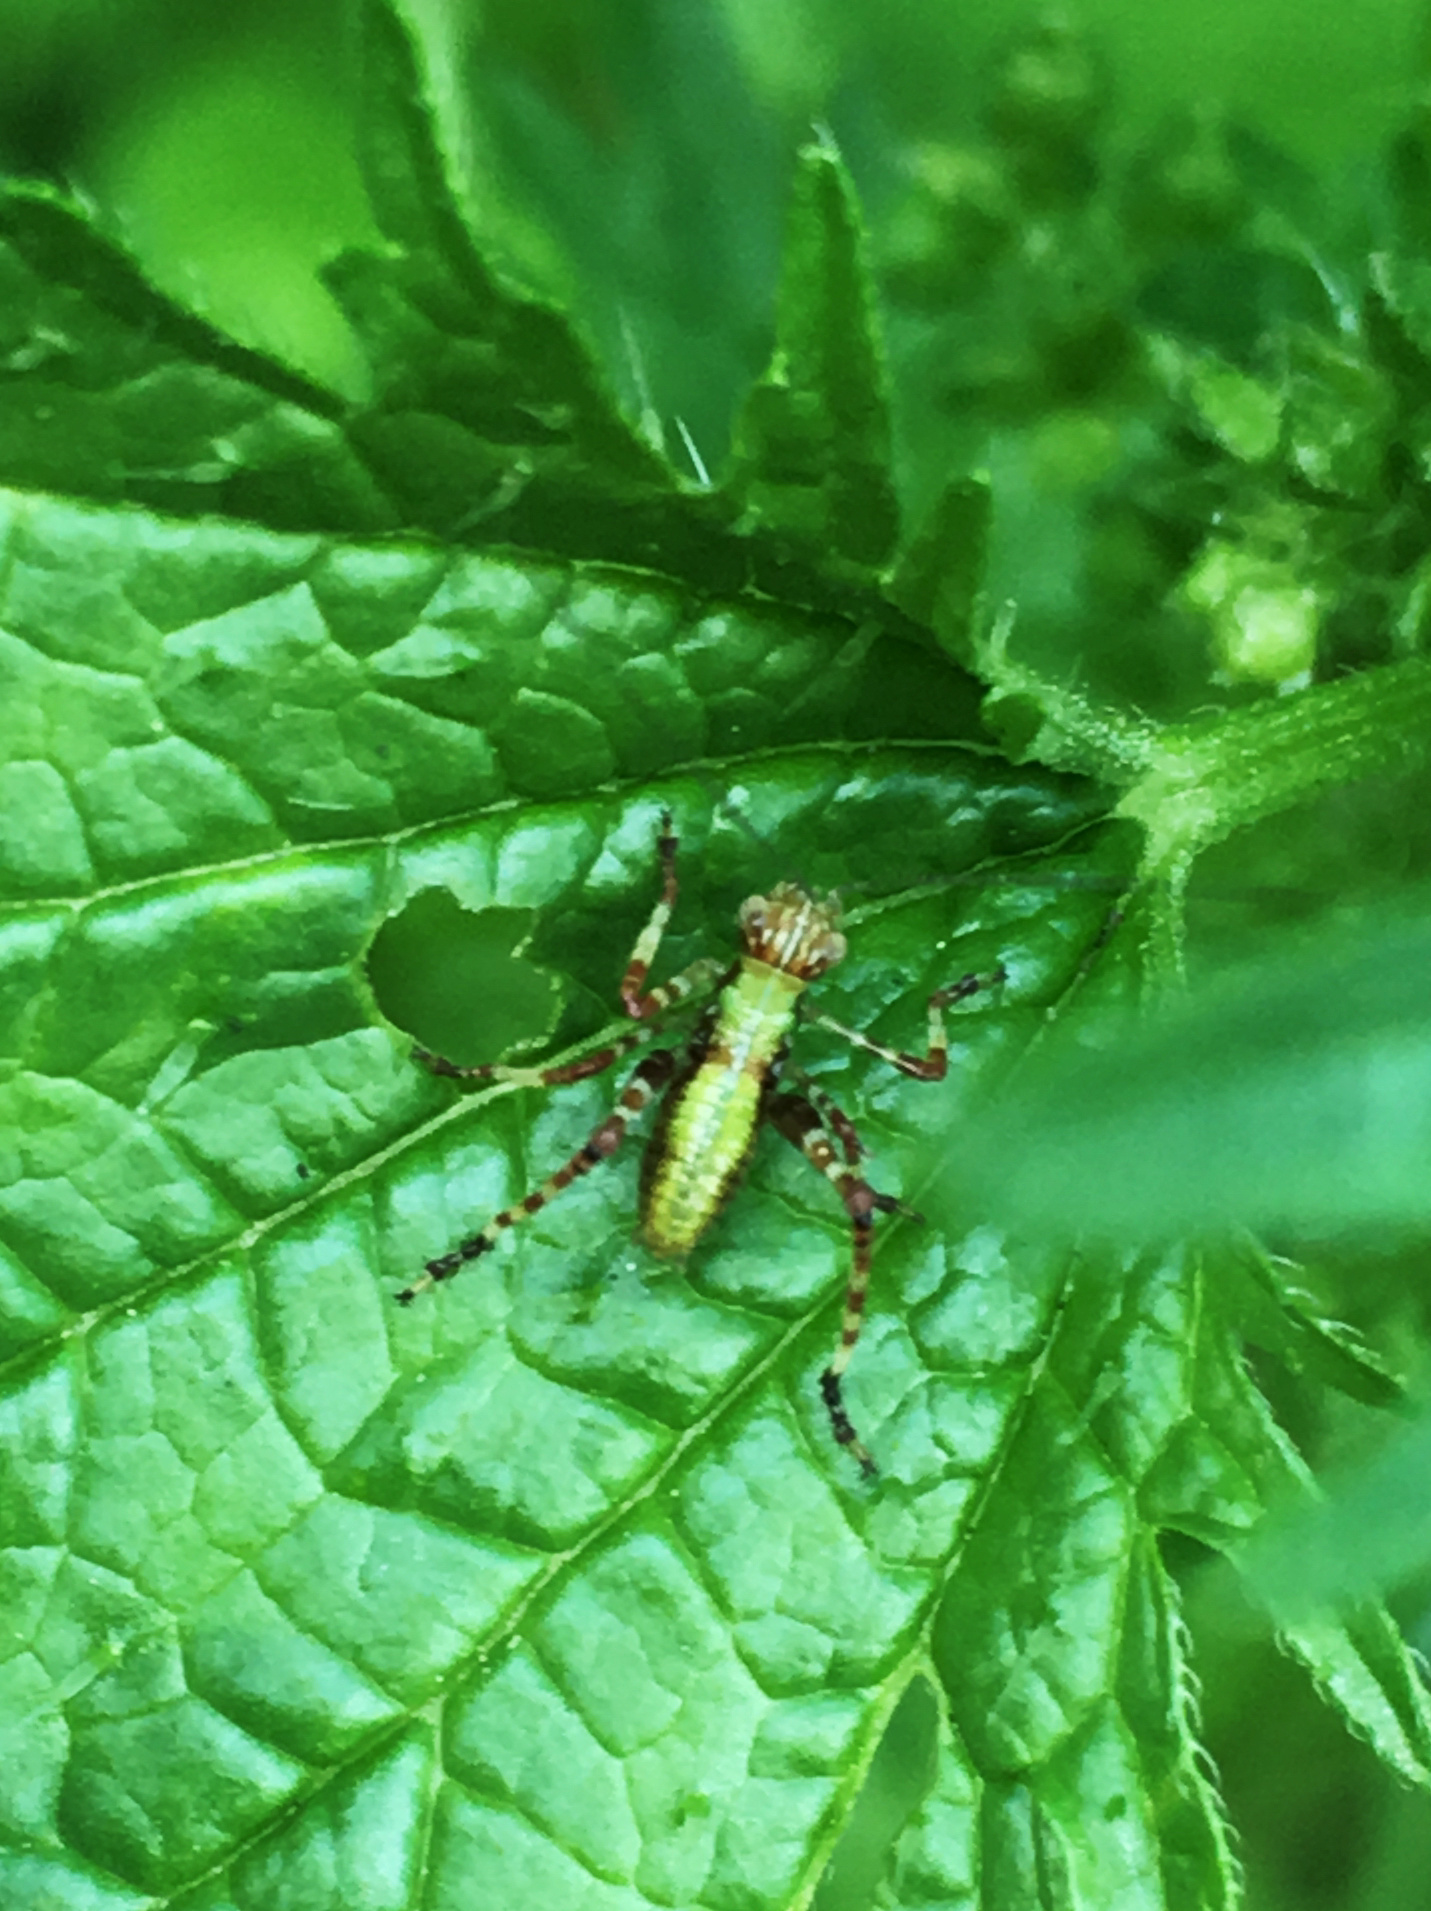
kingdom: Animalia
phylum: Arthropoda
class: Insecta
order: Orthoptera
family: Tettigoniidae
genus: Caedicia
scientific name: Caedicia simplex
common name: Common garden katydid
